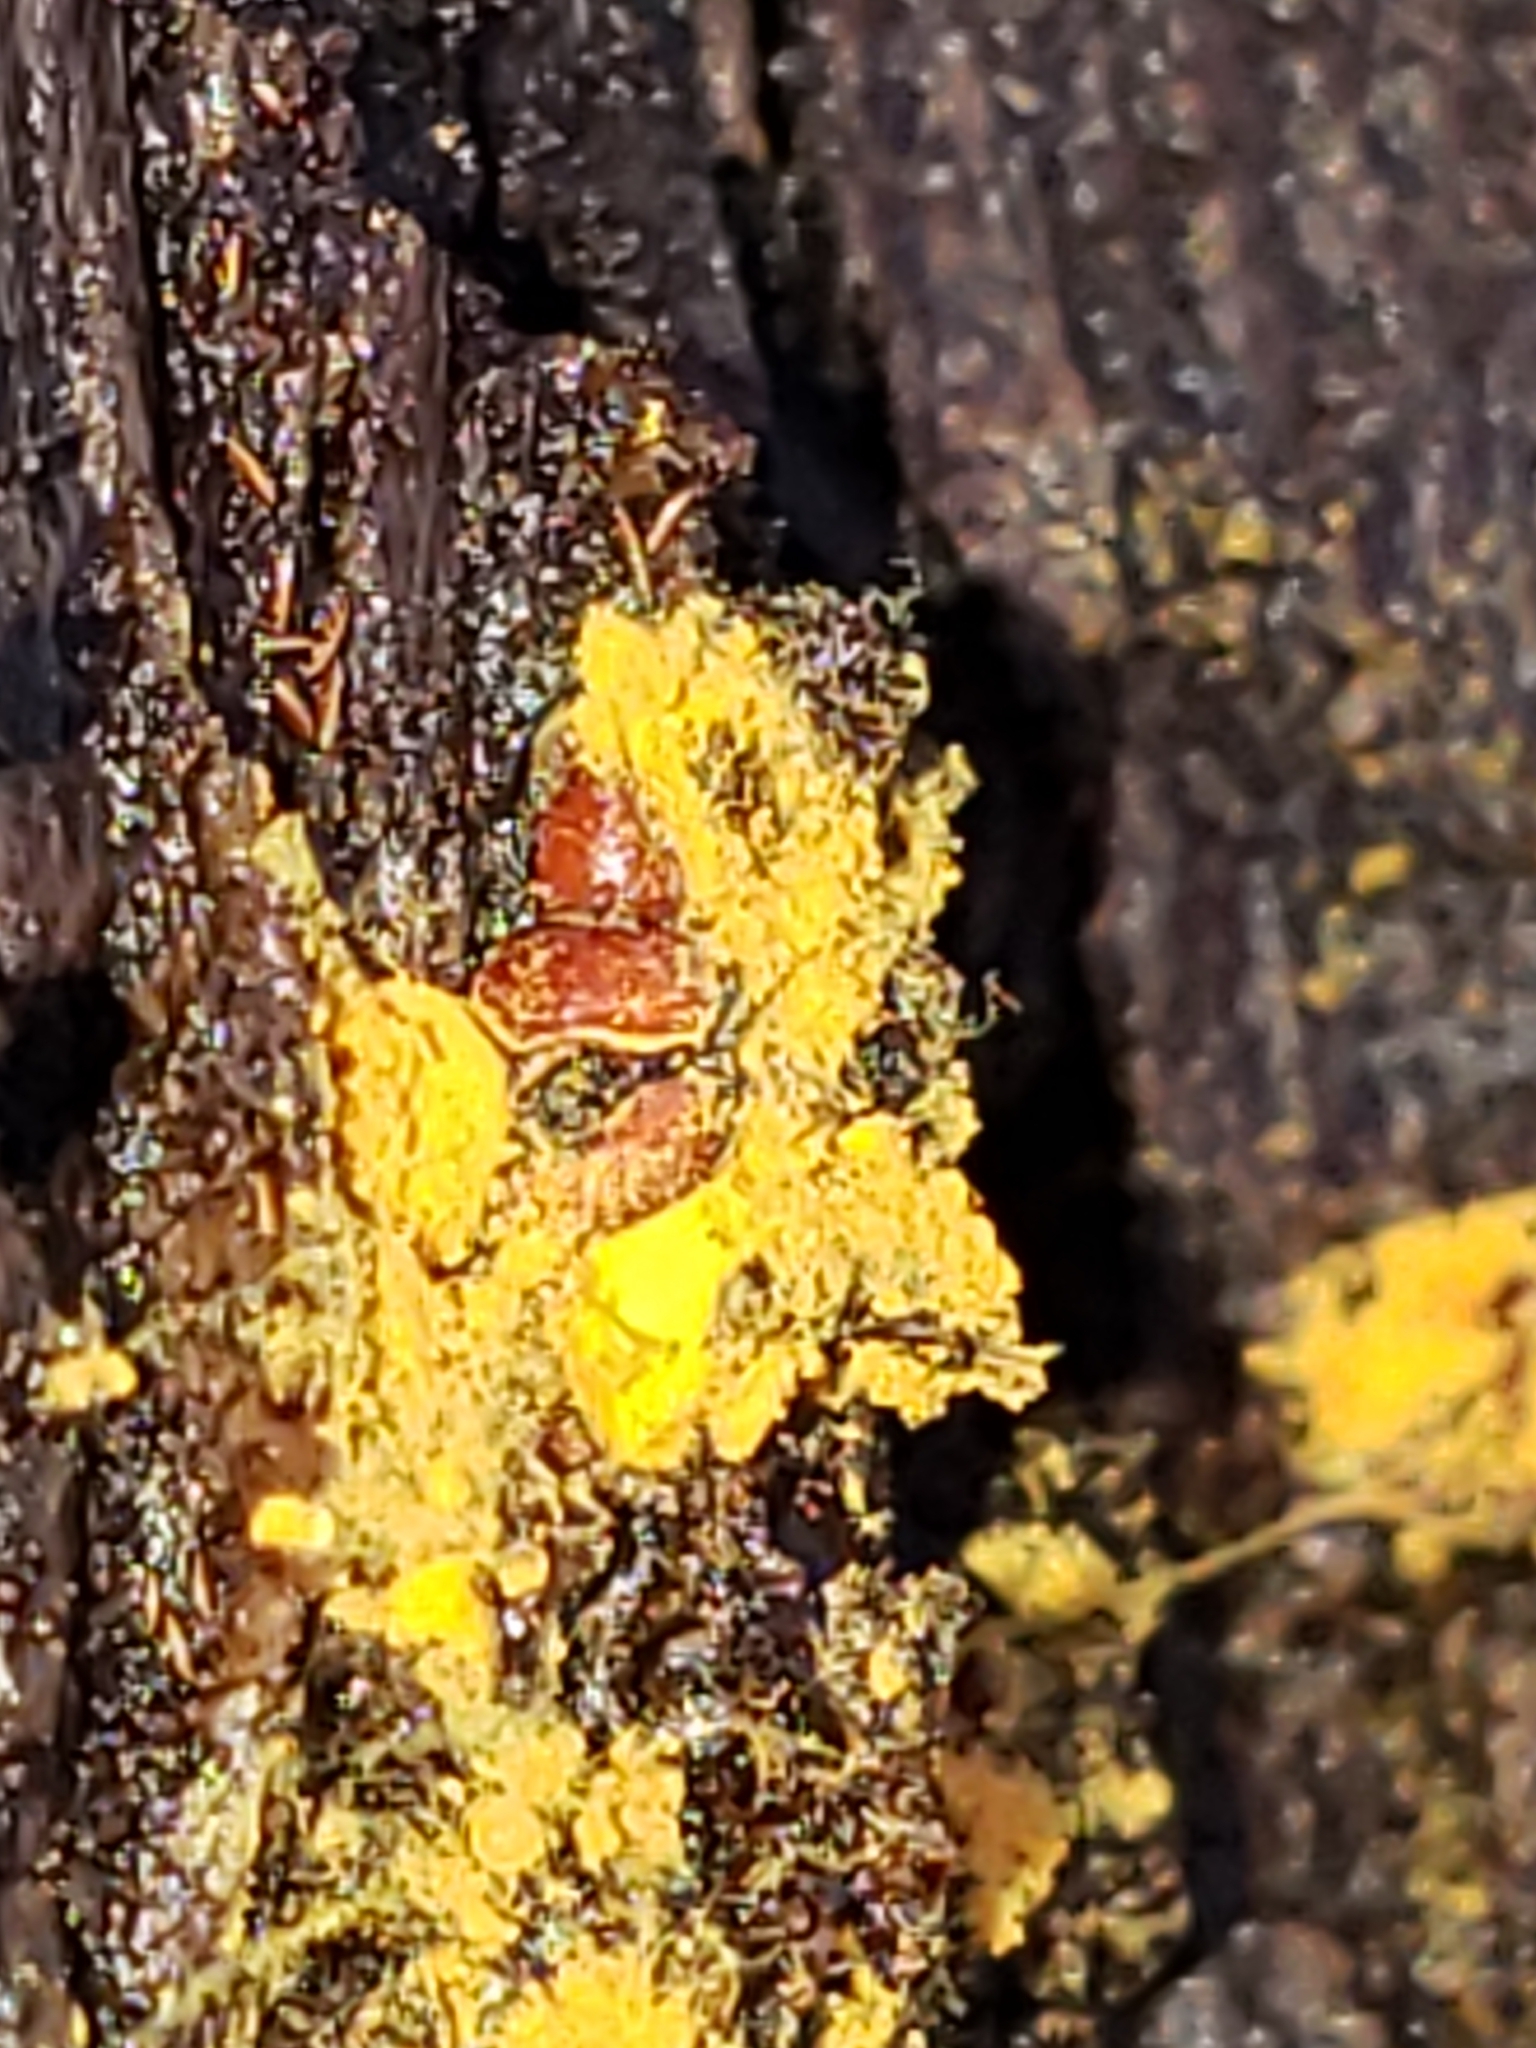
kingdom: Protozoa
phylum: Mycetozoa
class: Myxomycetes
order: Trichiales
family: Trichiaceae
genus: Perichaena
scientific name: Perichaena depressa
